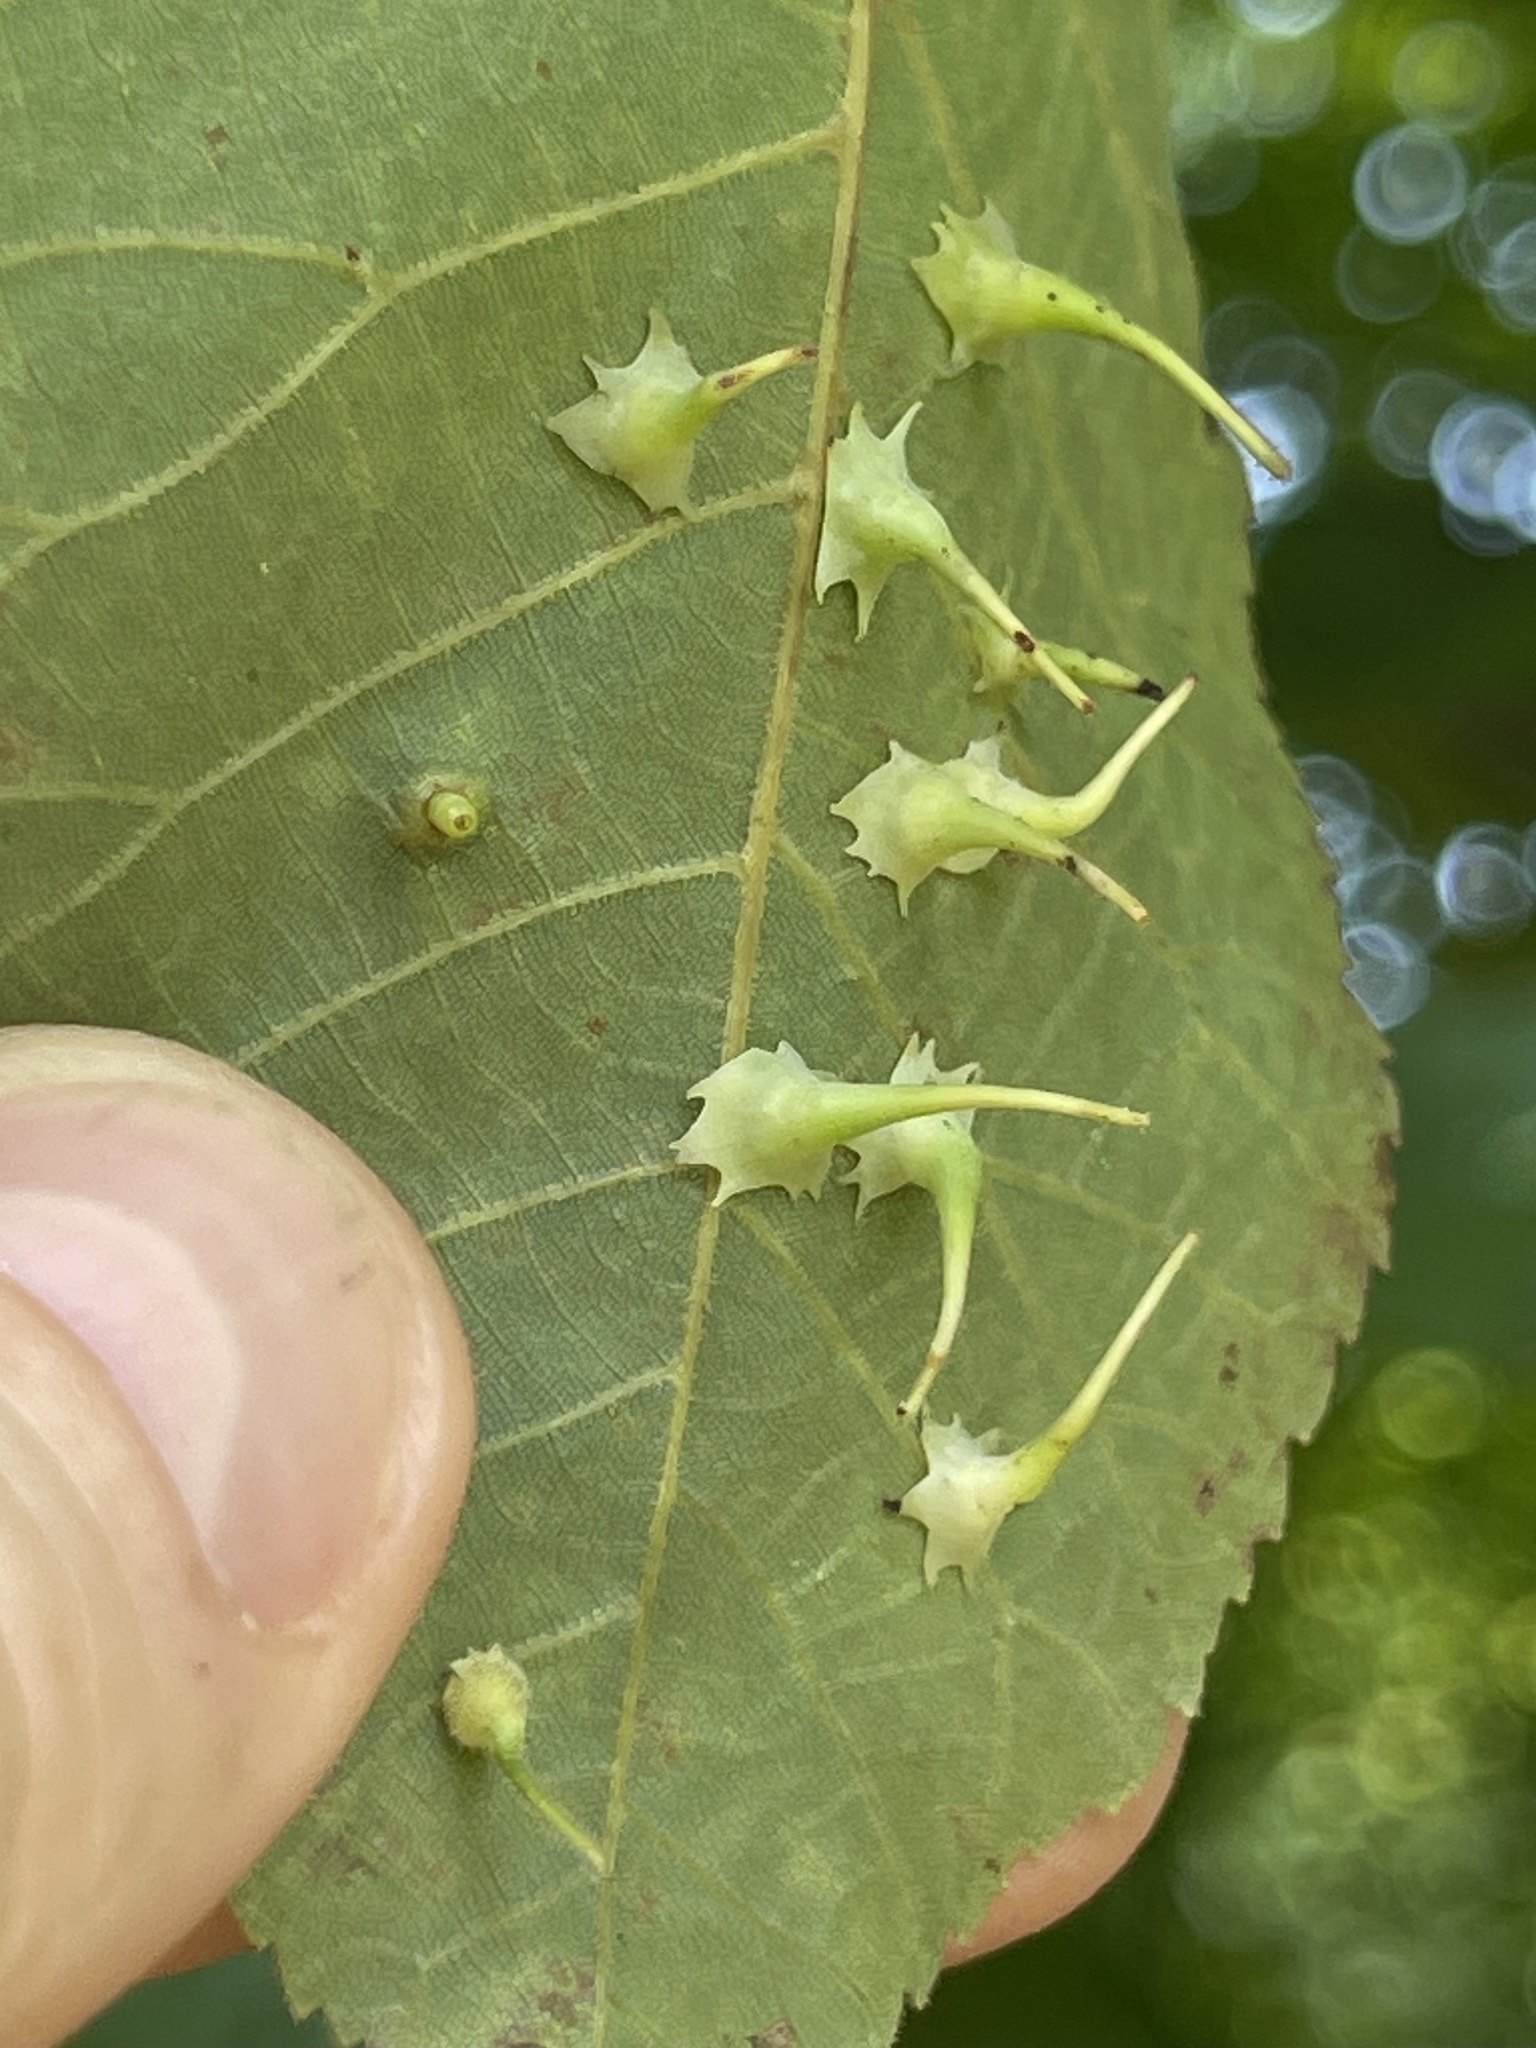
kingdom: Animalia
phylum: Arthropoda
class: Insecta
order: Diptera
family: Cecidomyiidae
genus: Caryomyia
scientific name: Caryomyia stellata
